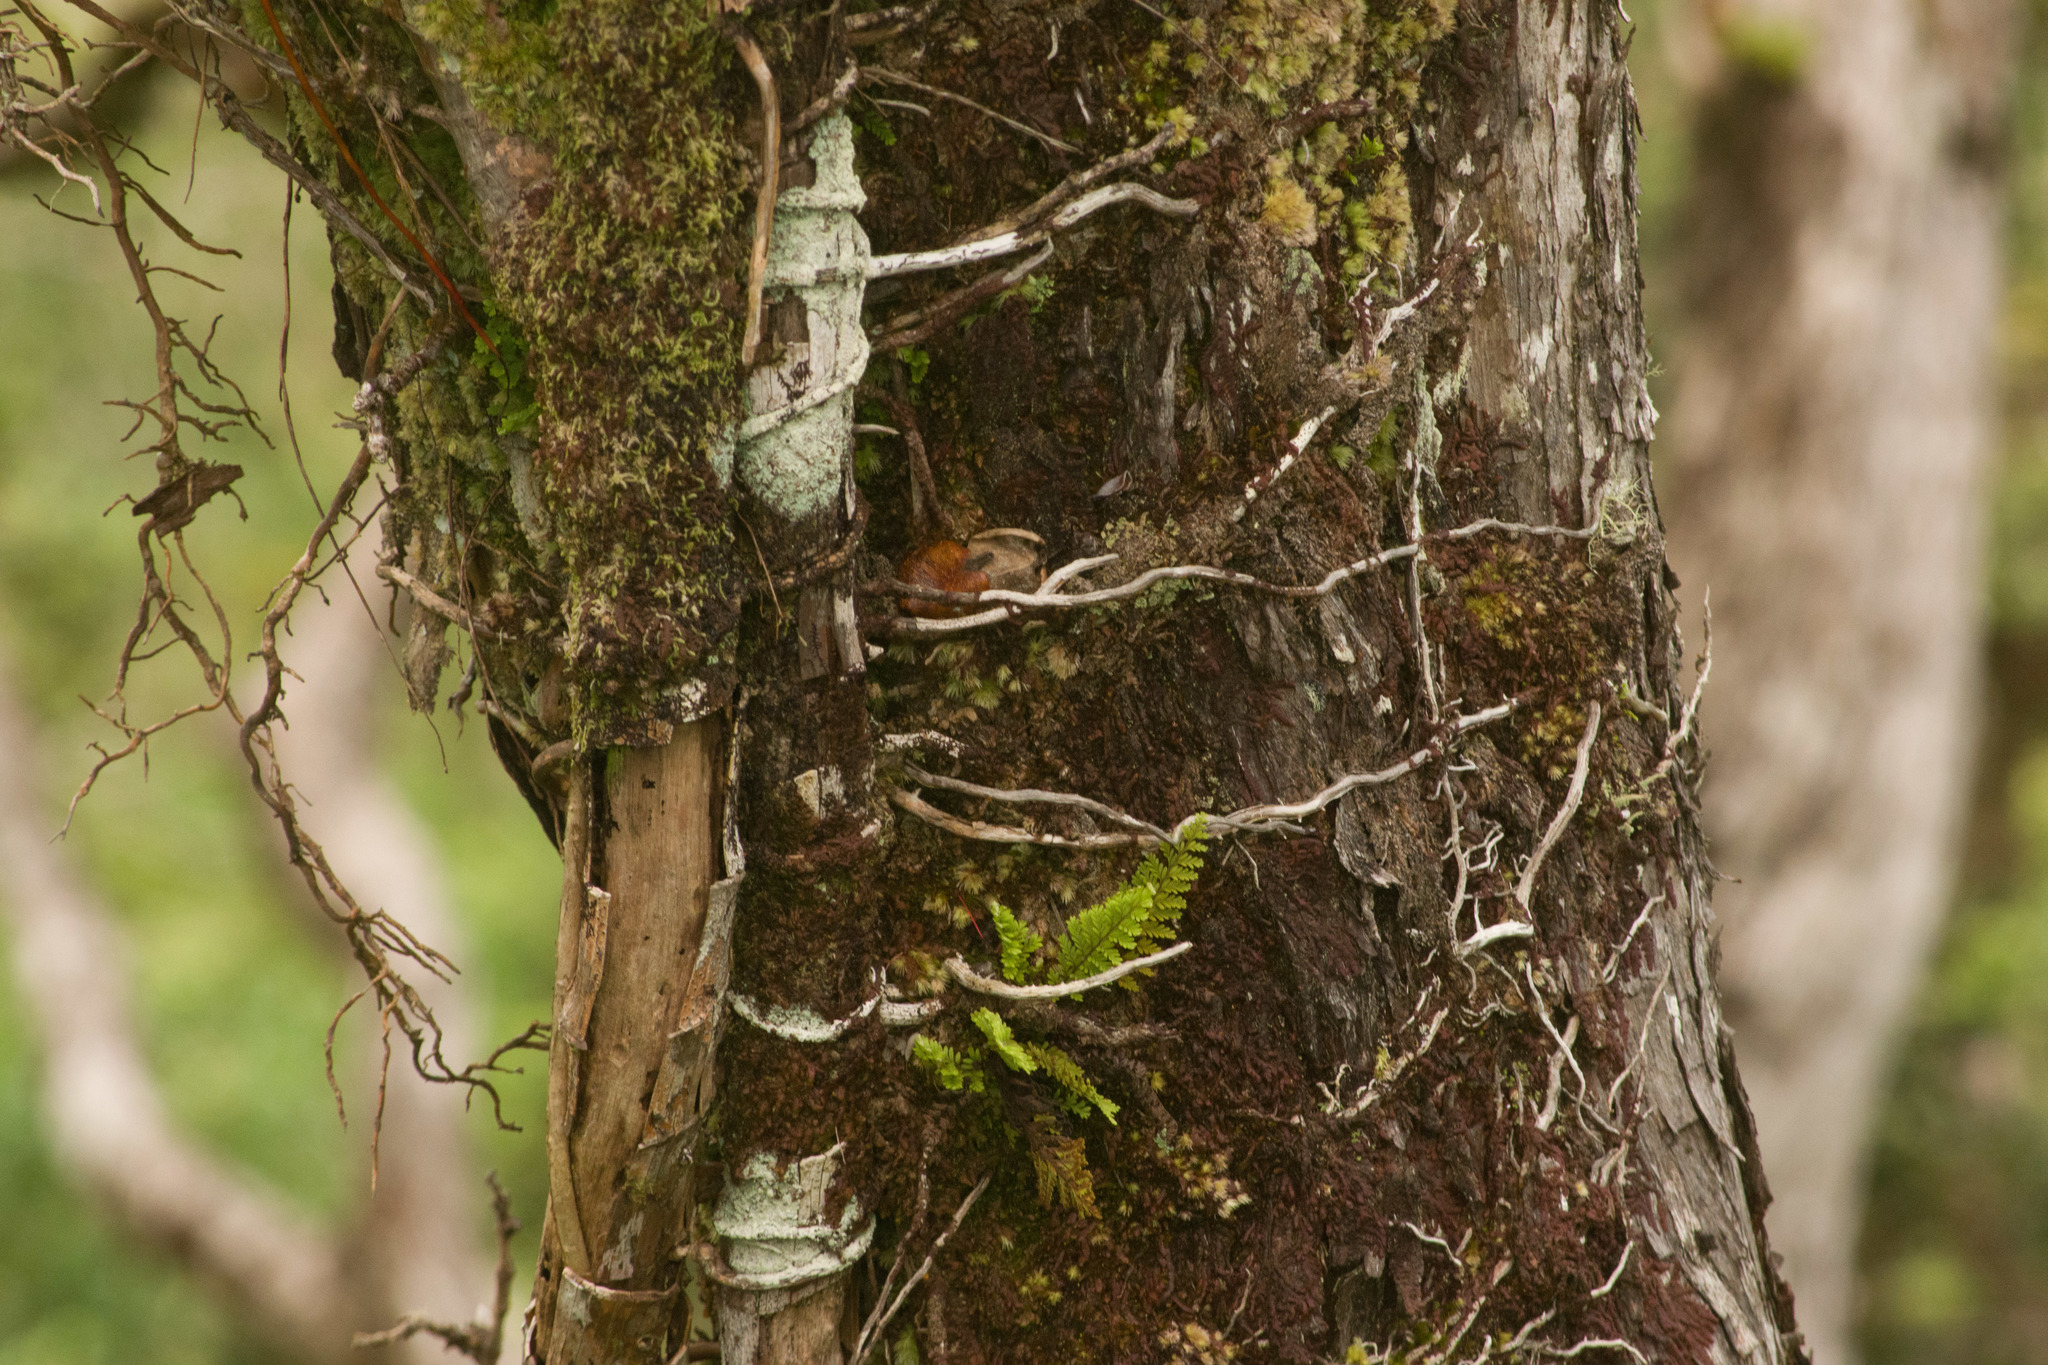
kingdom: Plantae
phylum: Tracheophyta
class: Polypodiopsida
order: Polypodiales
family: Polypodiaceae
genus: Adenophorus
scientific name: Adenophorus tamariscinus
